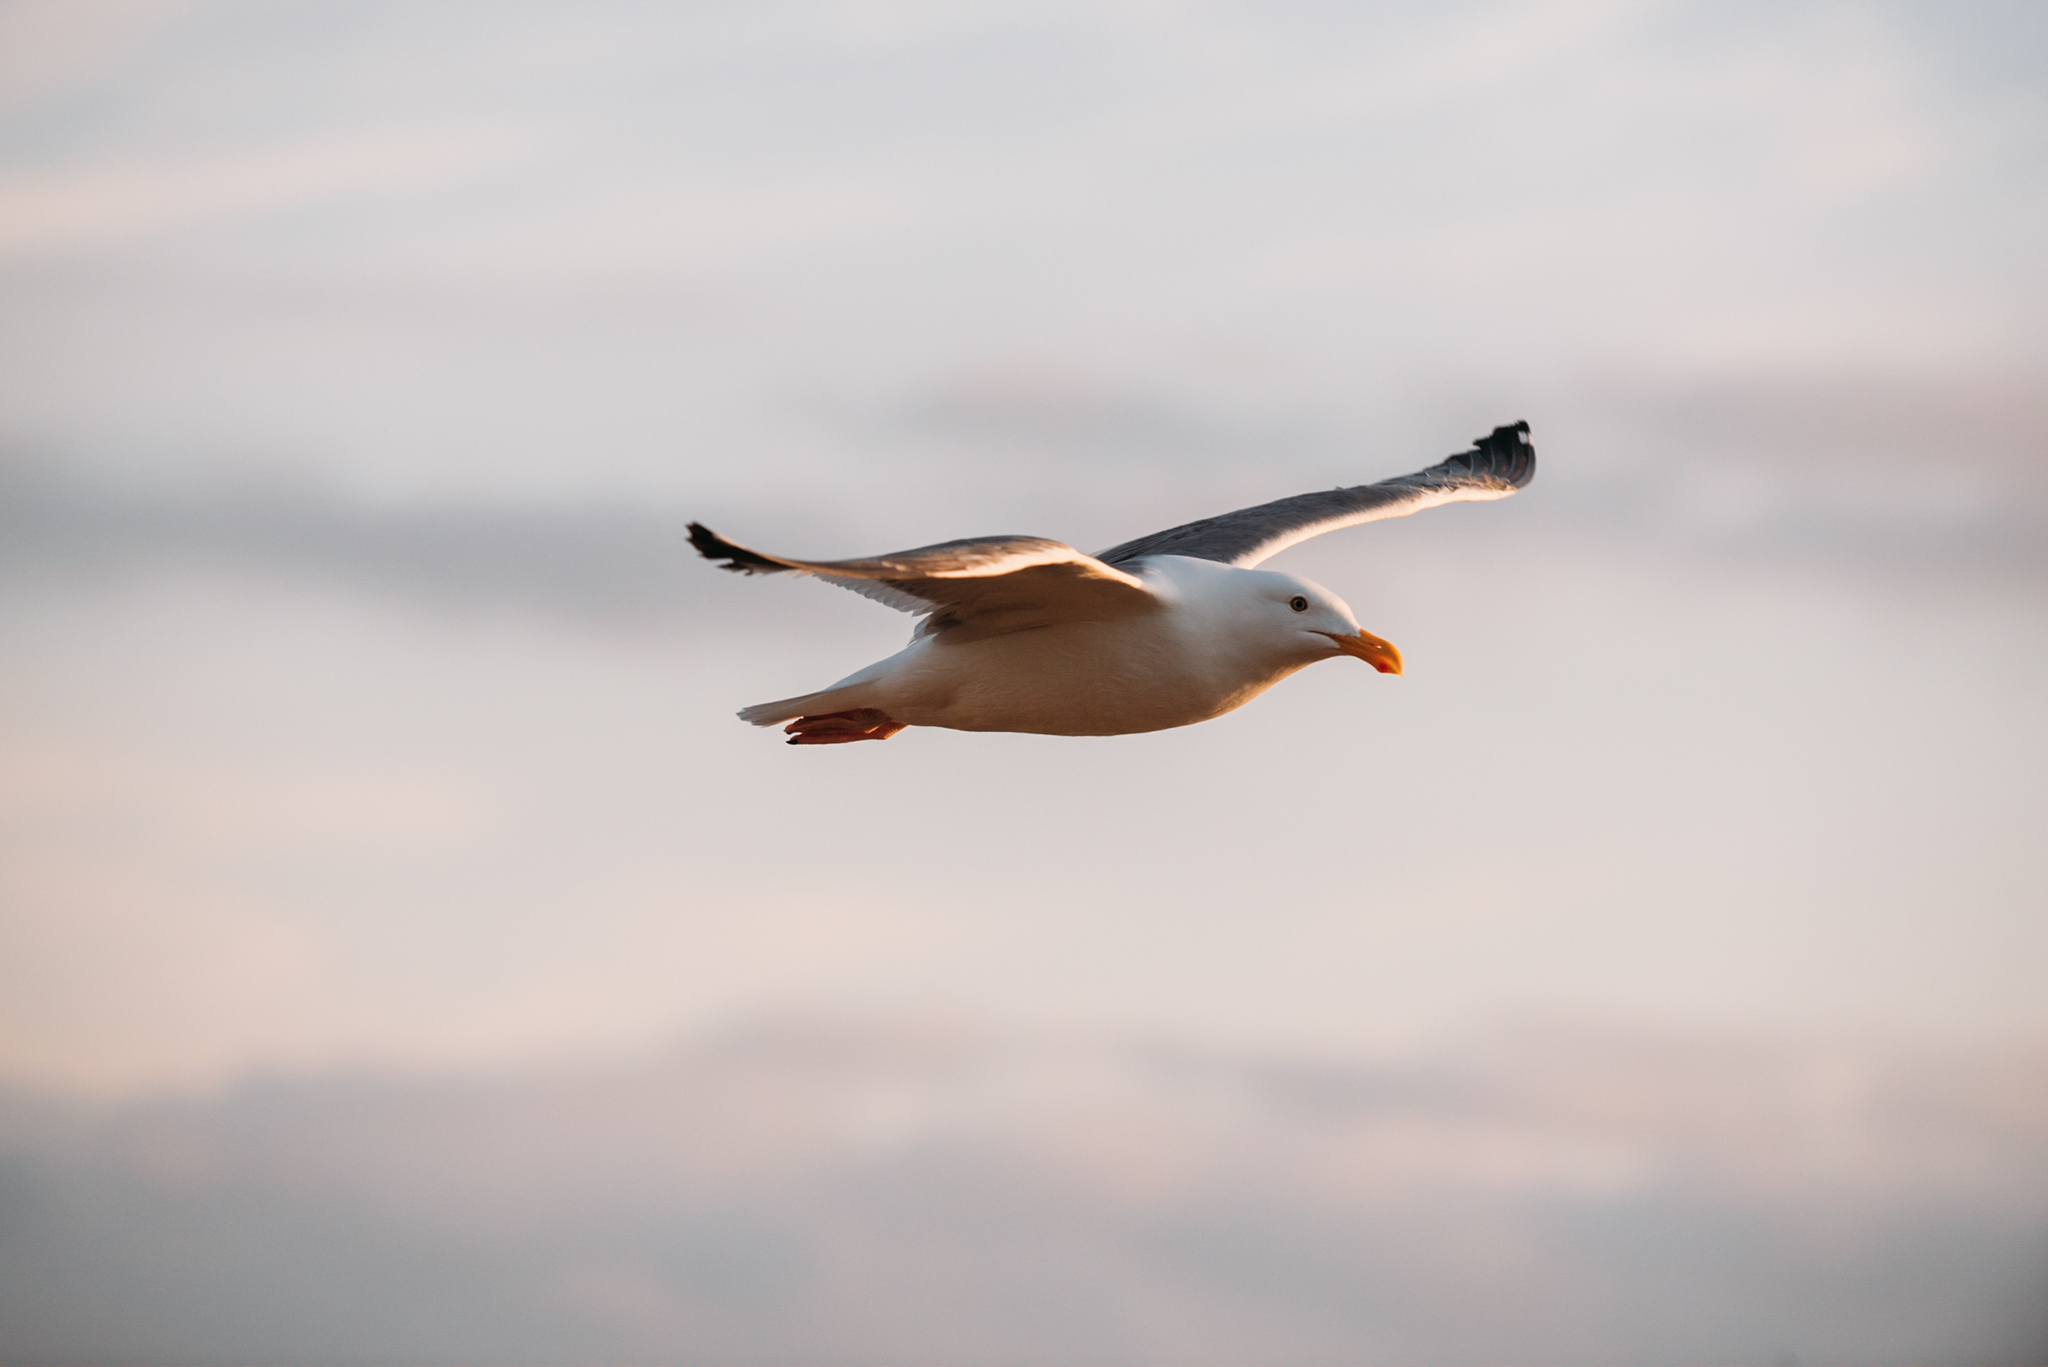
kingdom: Animalia
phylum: Chordata
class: Aves
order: Charadriiformes
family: Laridae
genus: Larus
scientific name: Larus occidentalis
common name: Western gull
